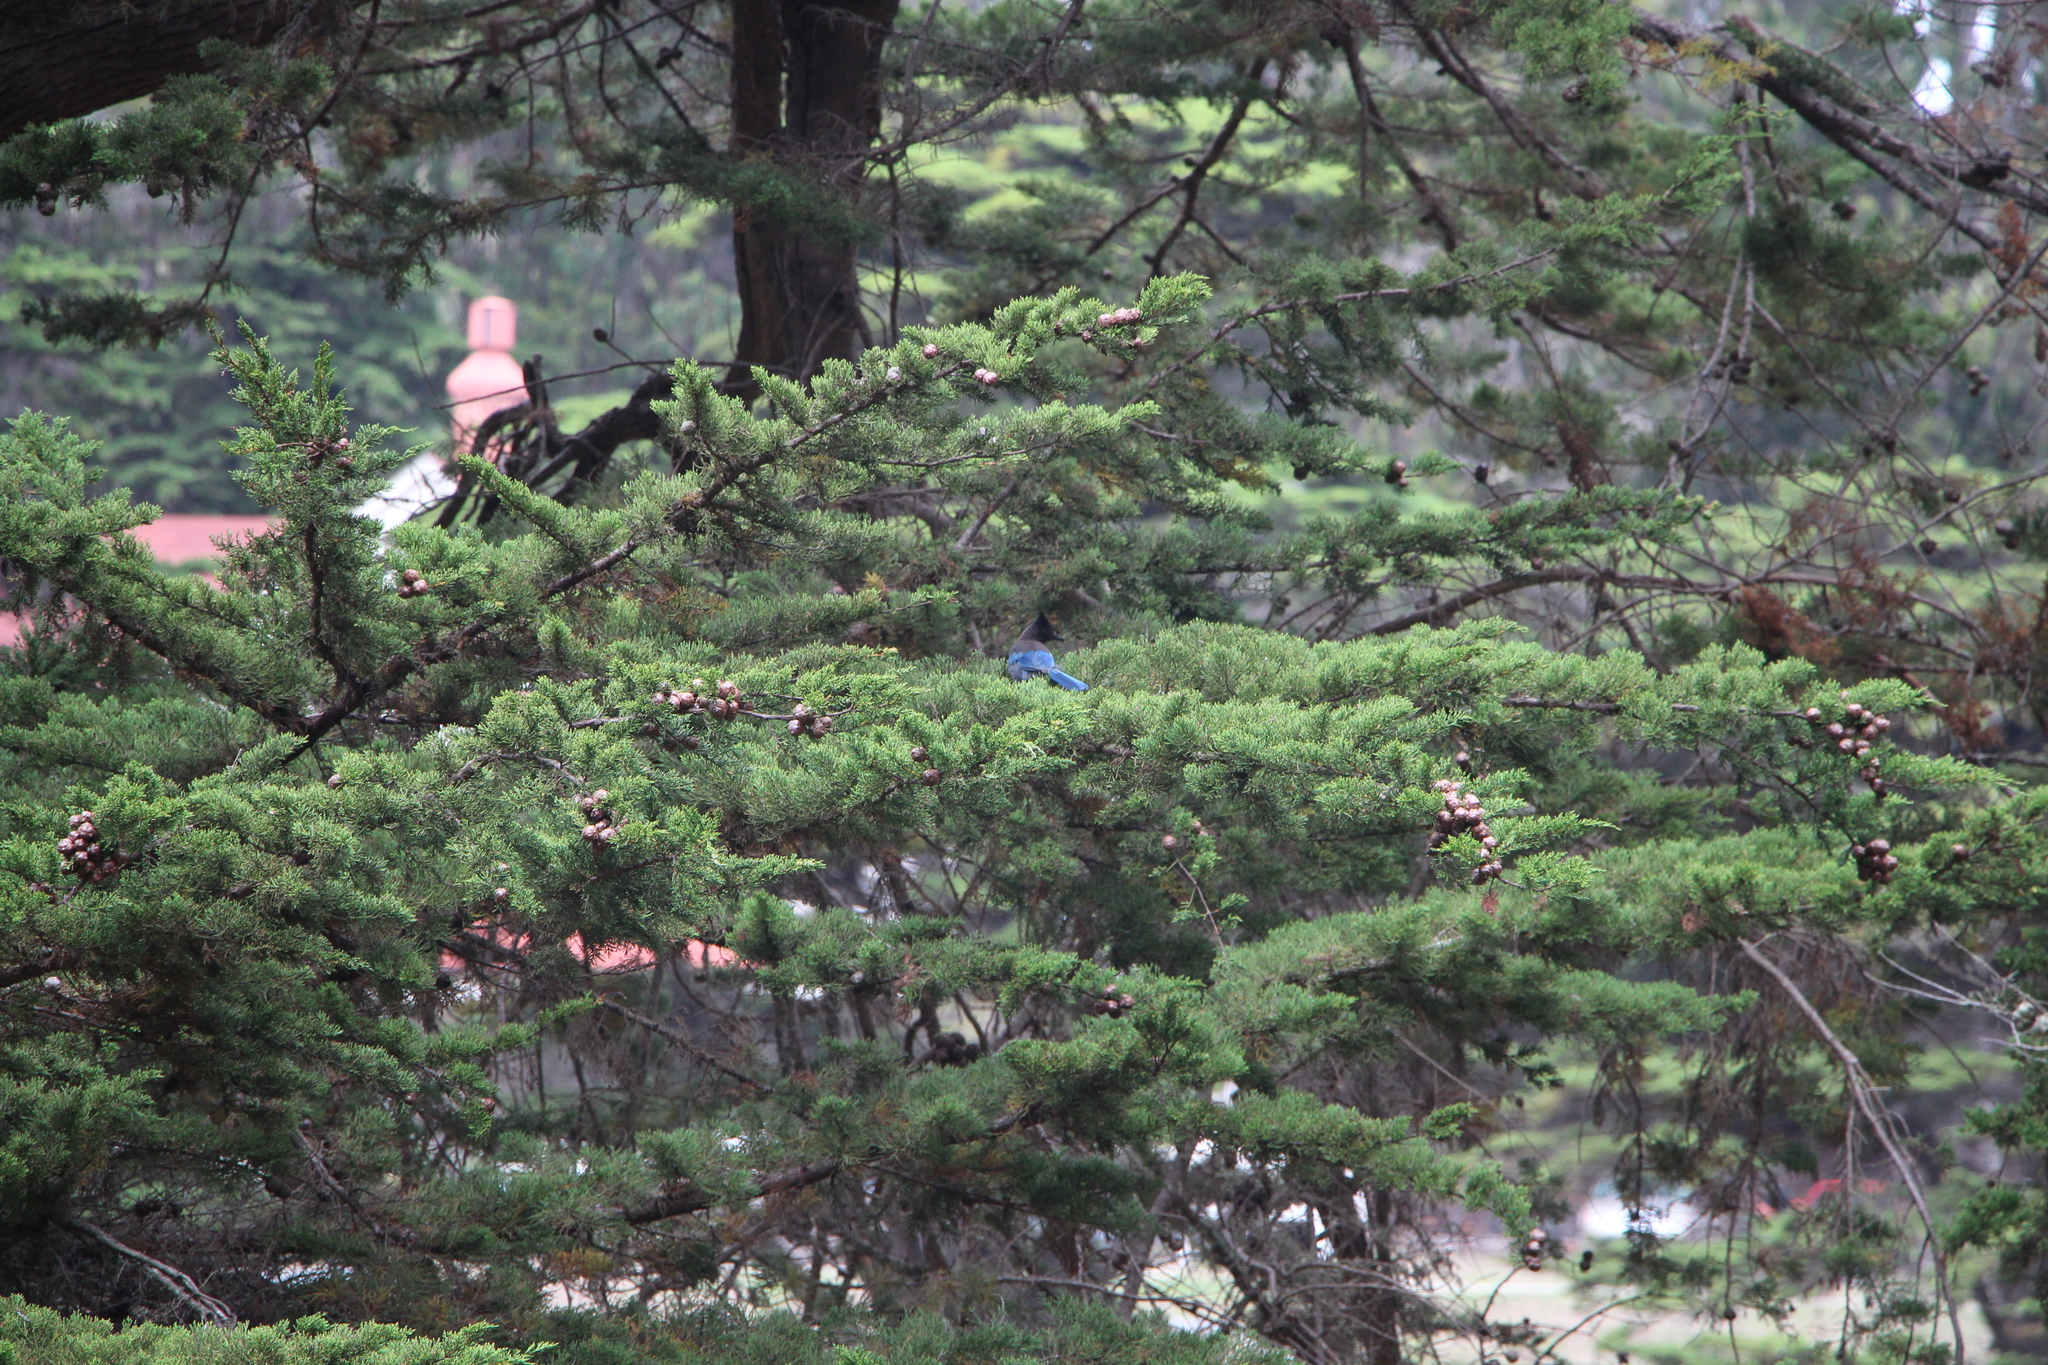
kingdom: Animalia
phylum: Chordata
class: Aves
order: Passeriformes
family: Corvidae
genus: Cyanocitta
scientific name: Cyanocitta stelleri
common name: Steller's jay
